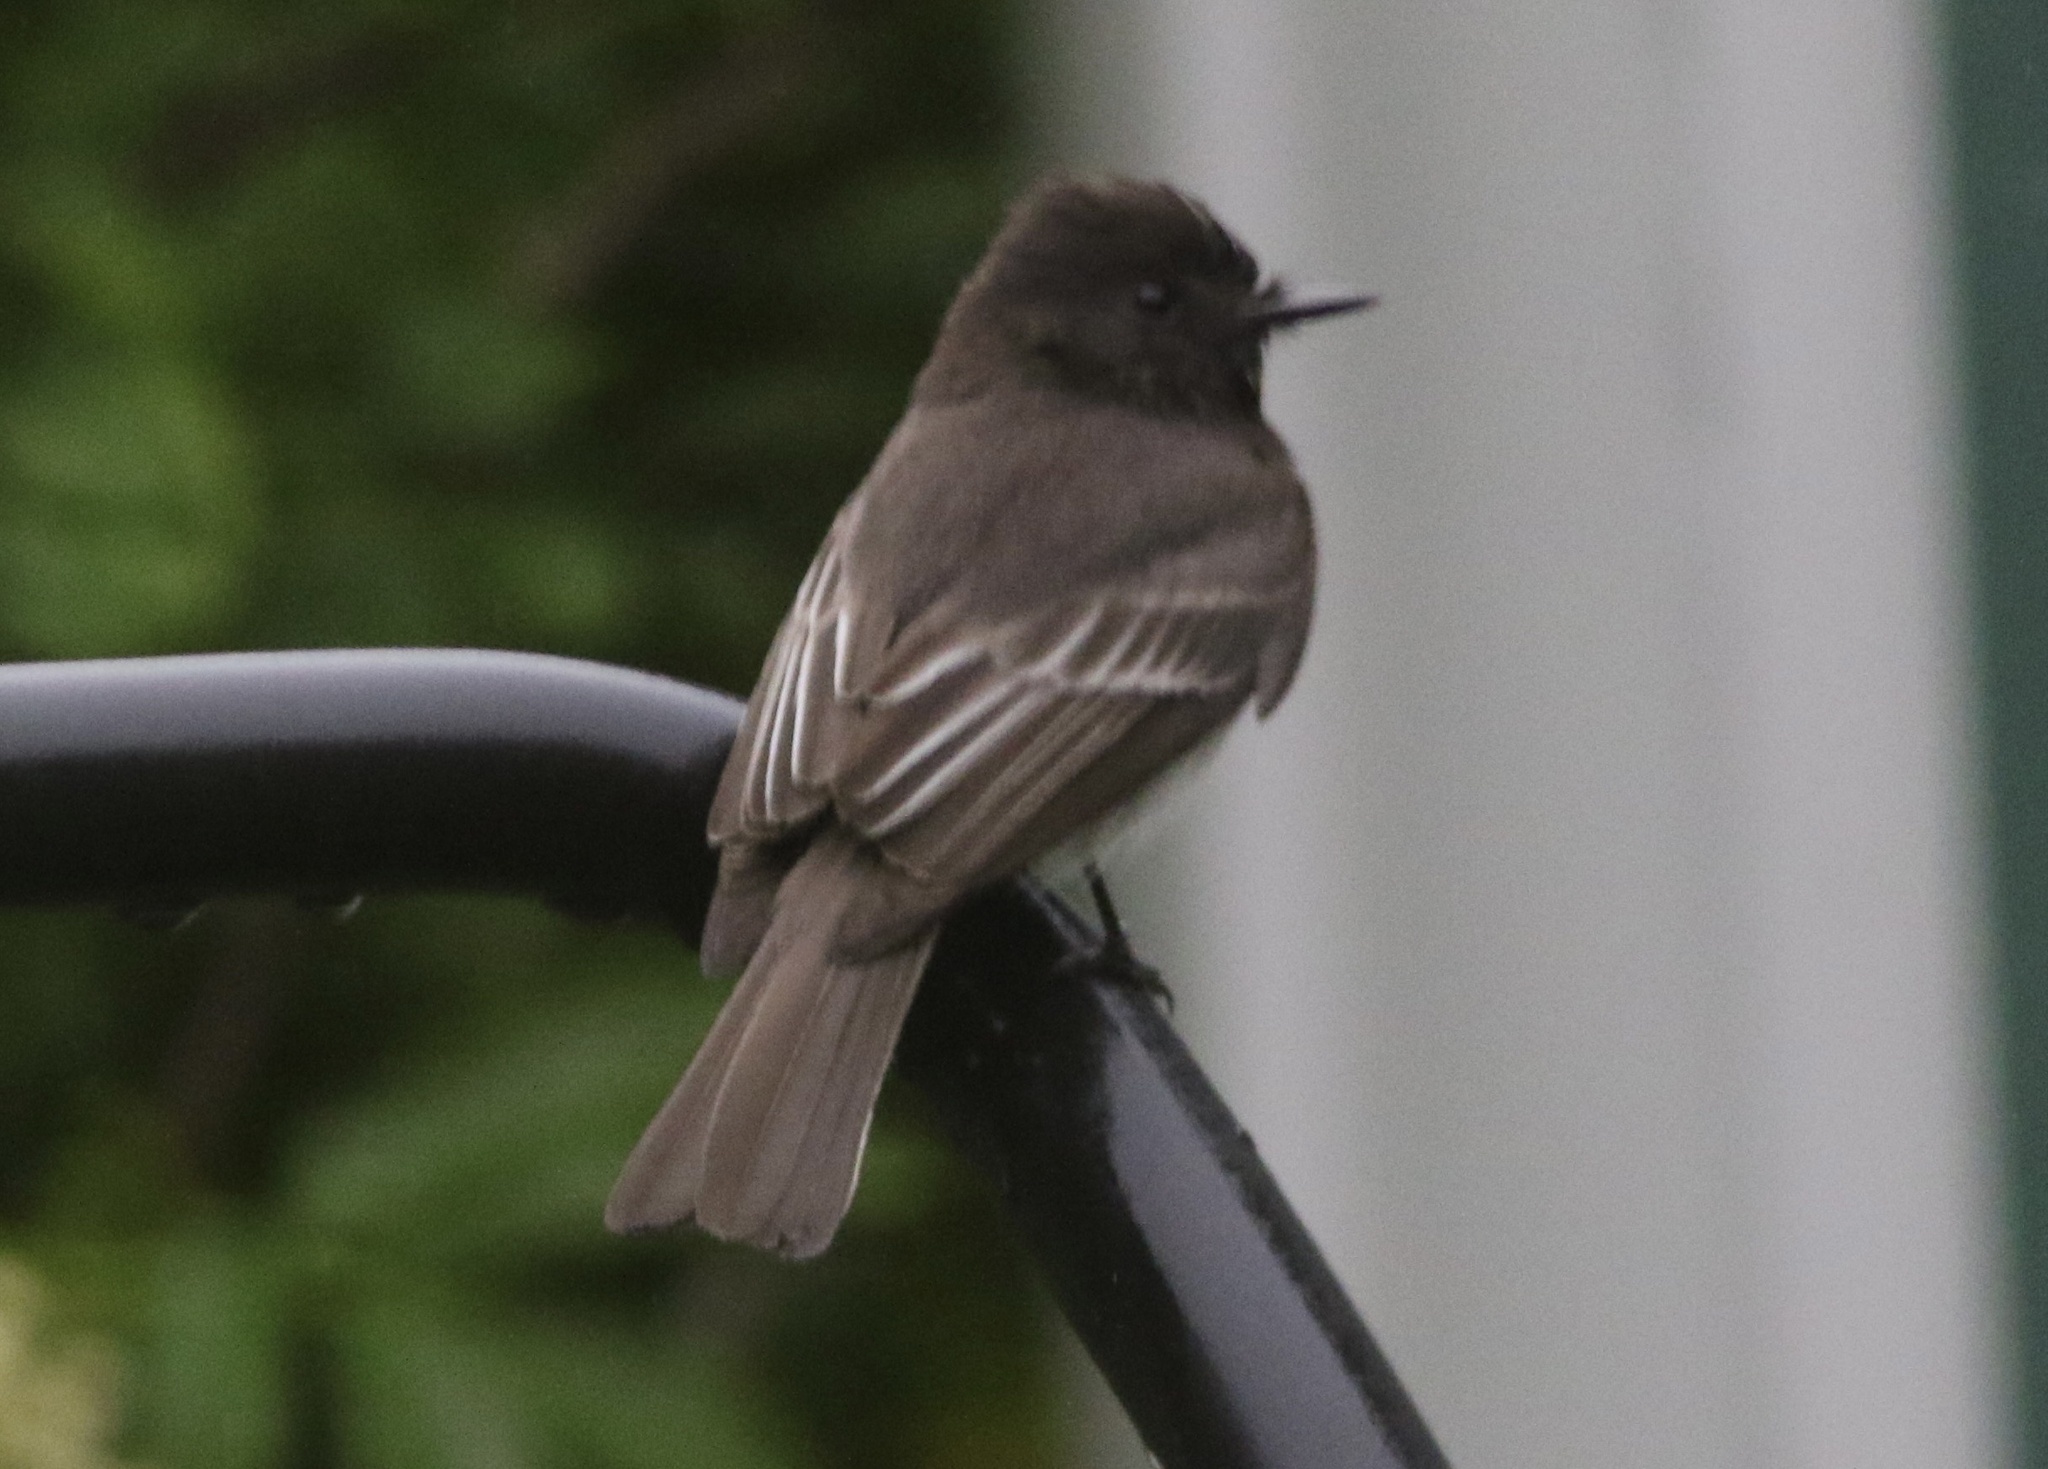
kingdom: Animalia
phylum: Chordata
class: Aves
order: Passeriformes
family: Tyrannidae
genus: Sayornis
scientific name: Sayornis nigricans
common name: Black phoebe
